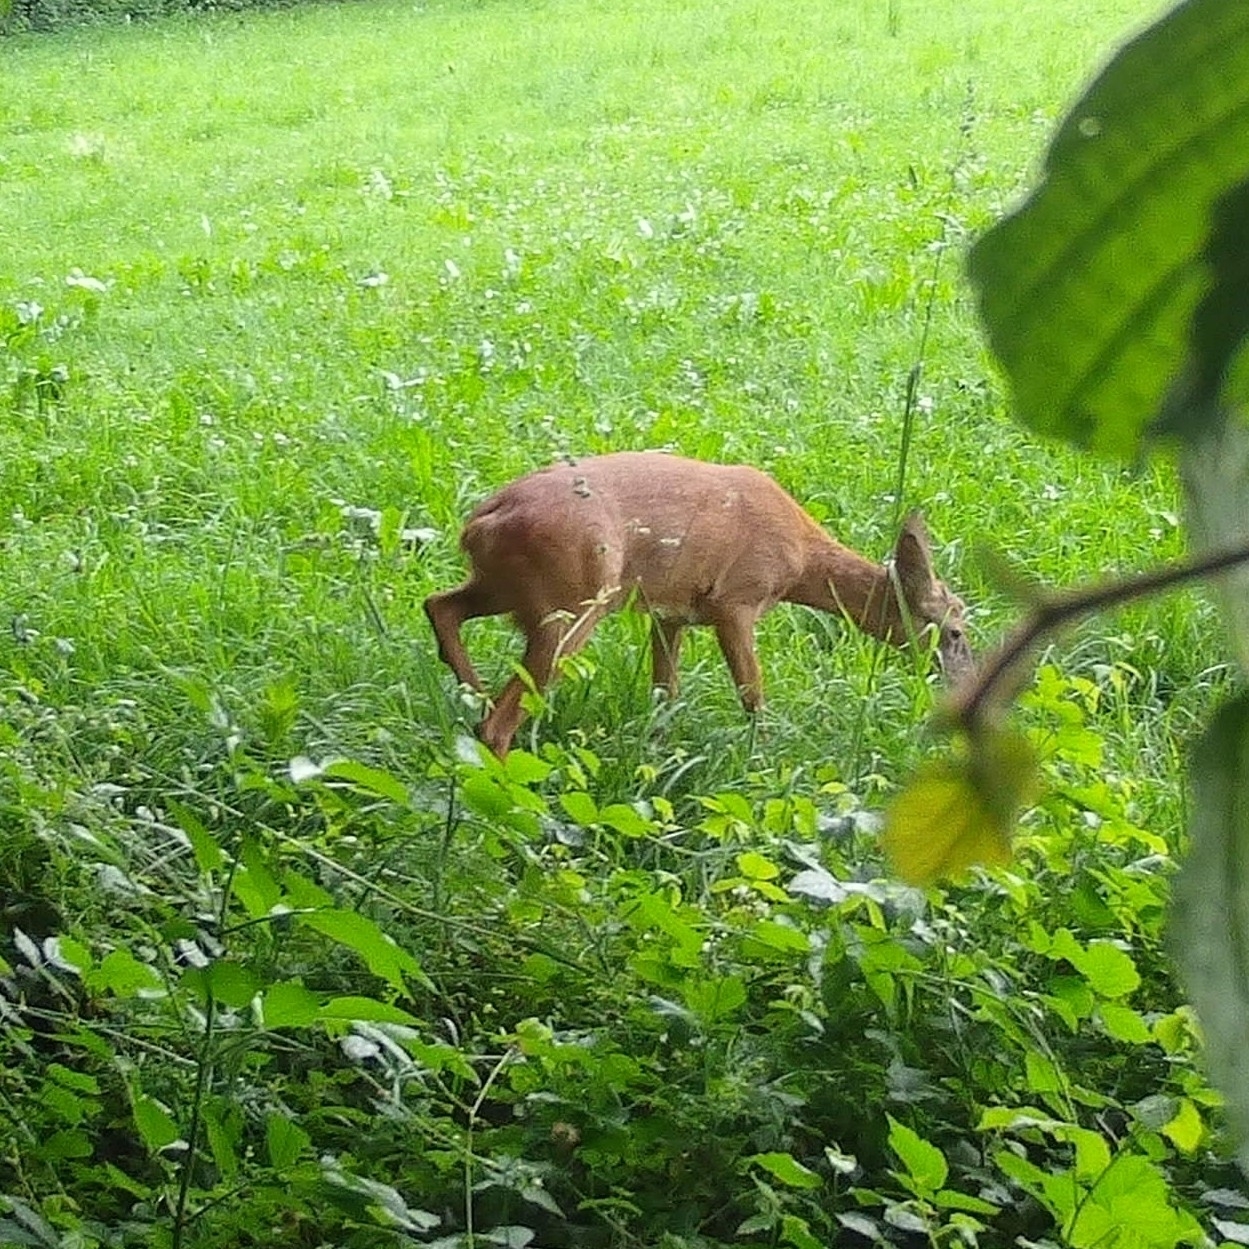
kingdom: Animalia
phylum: Chordata
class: Mammalia
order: Artiodactyla
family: Cervidae
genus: Capreolus
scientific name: Capreolus capreolus
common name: Western roe deer
